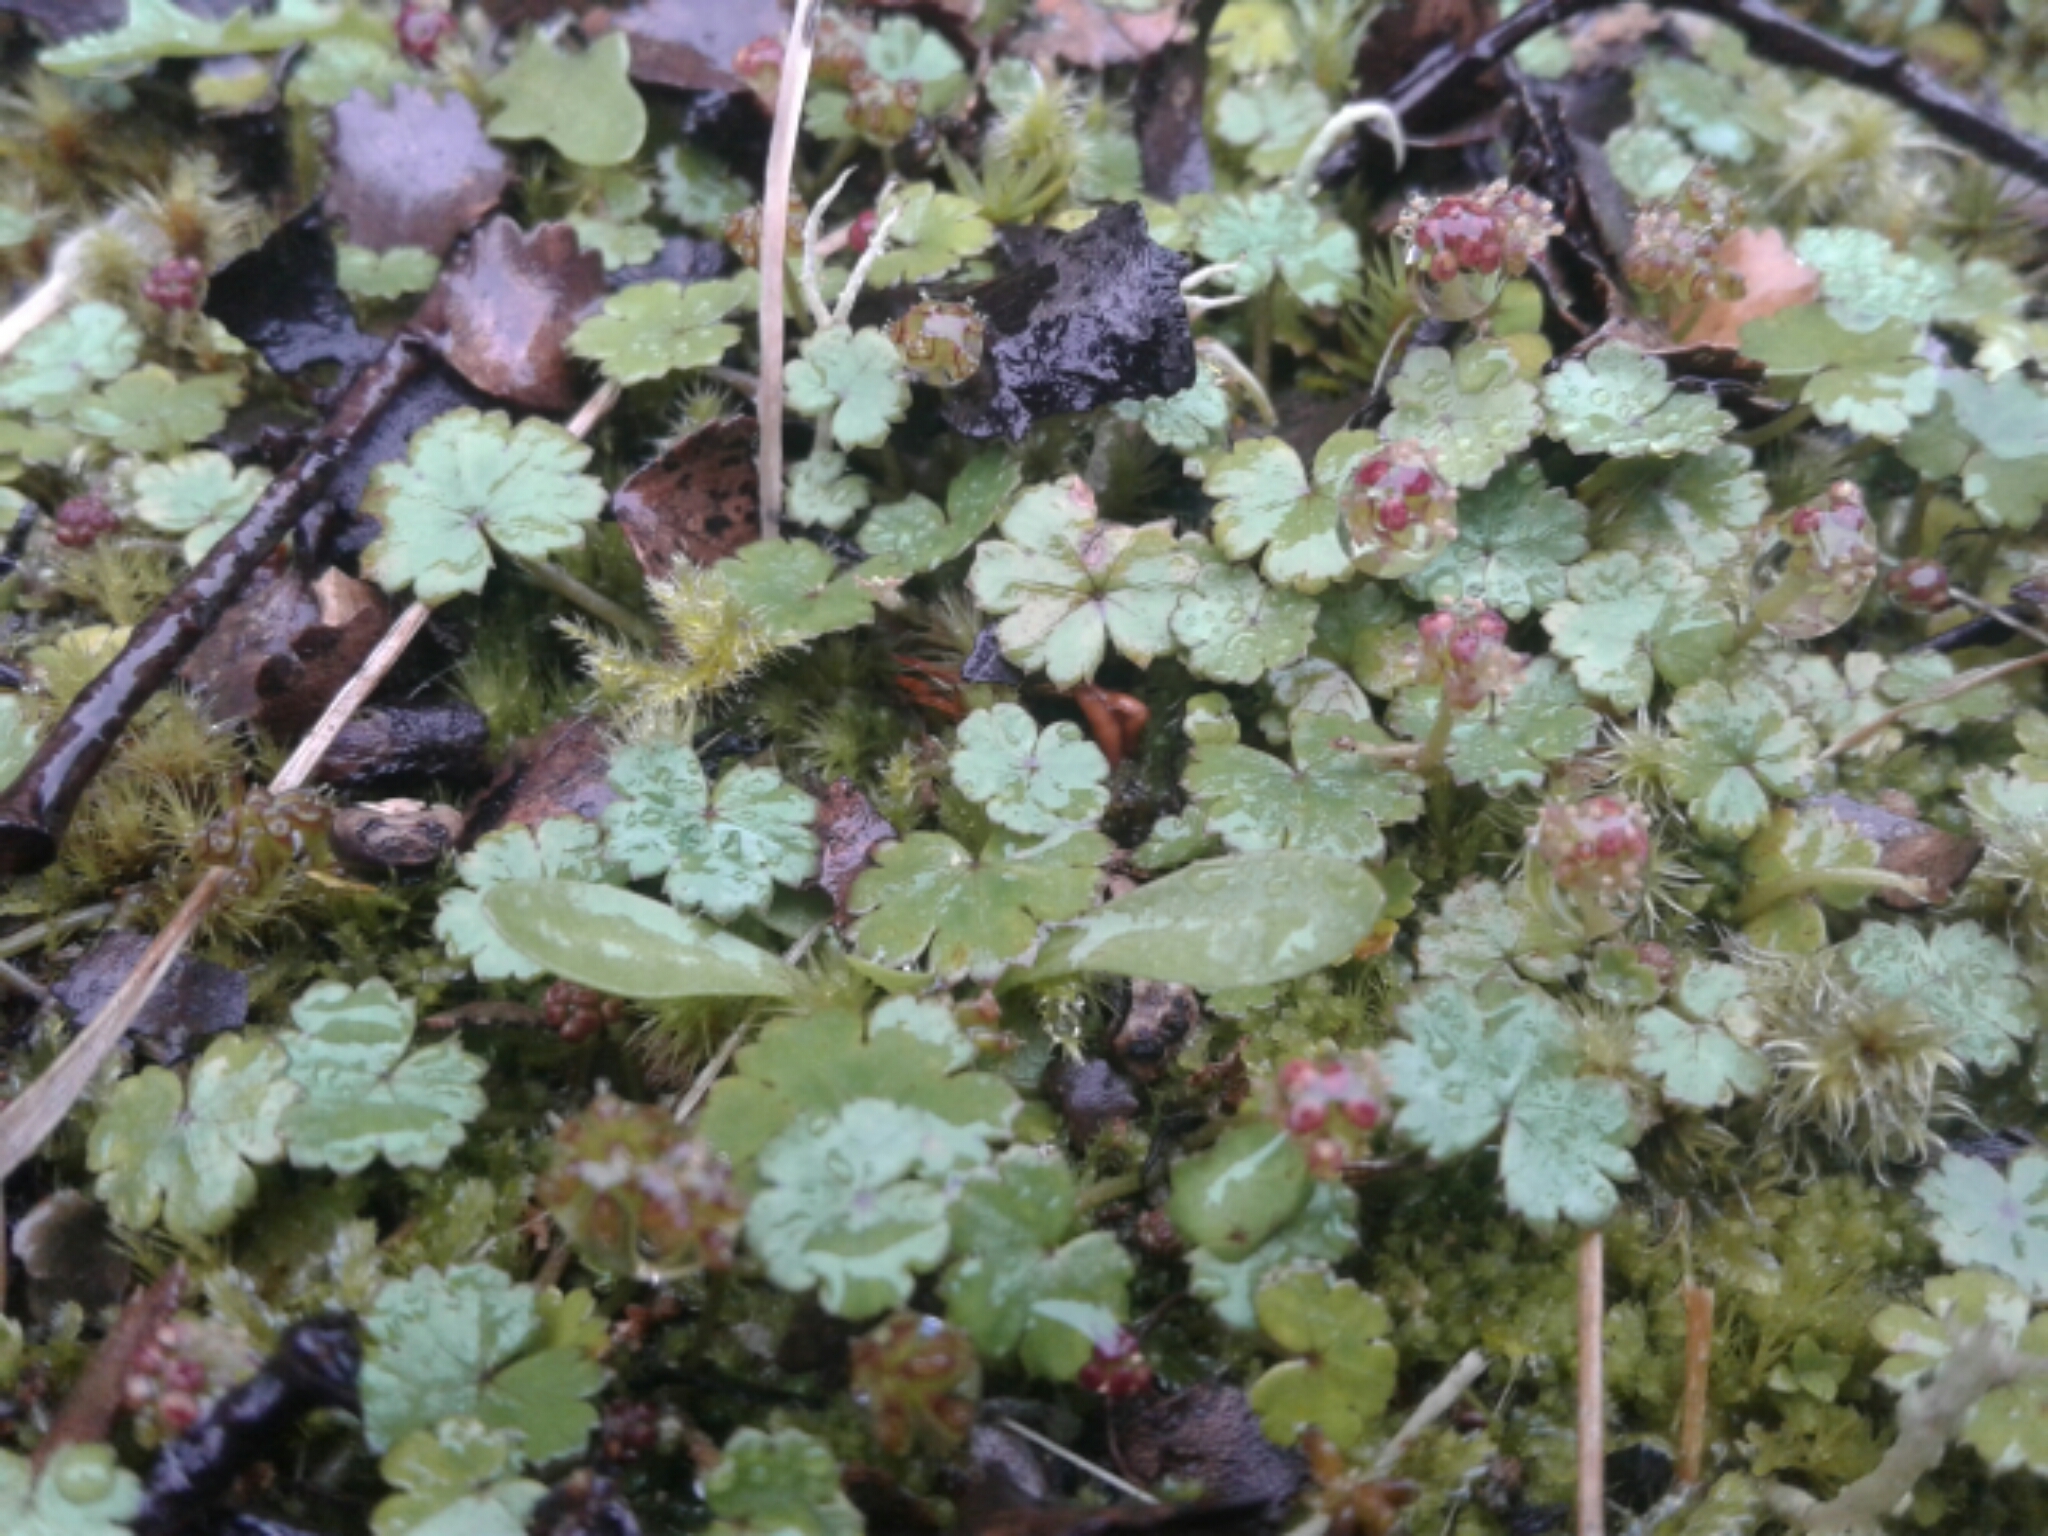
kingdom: Plantae
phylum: Tracheophyta
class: Magnoliopsida
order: Apiales
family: Araliaceae
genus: Hydrocotyle
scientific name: Hydrocotyle
